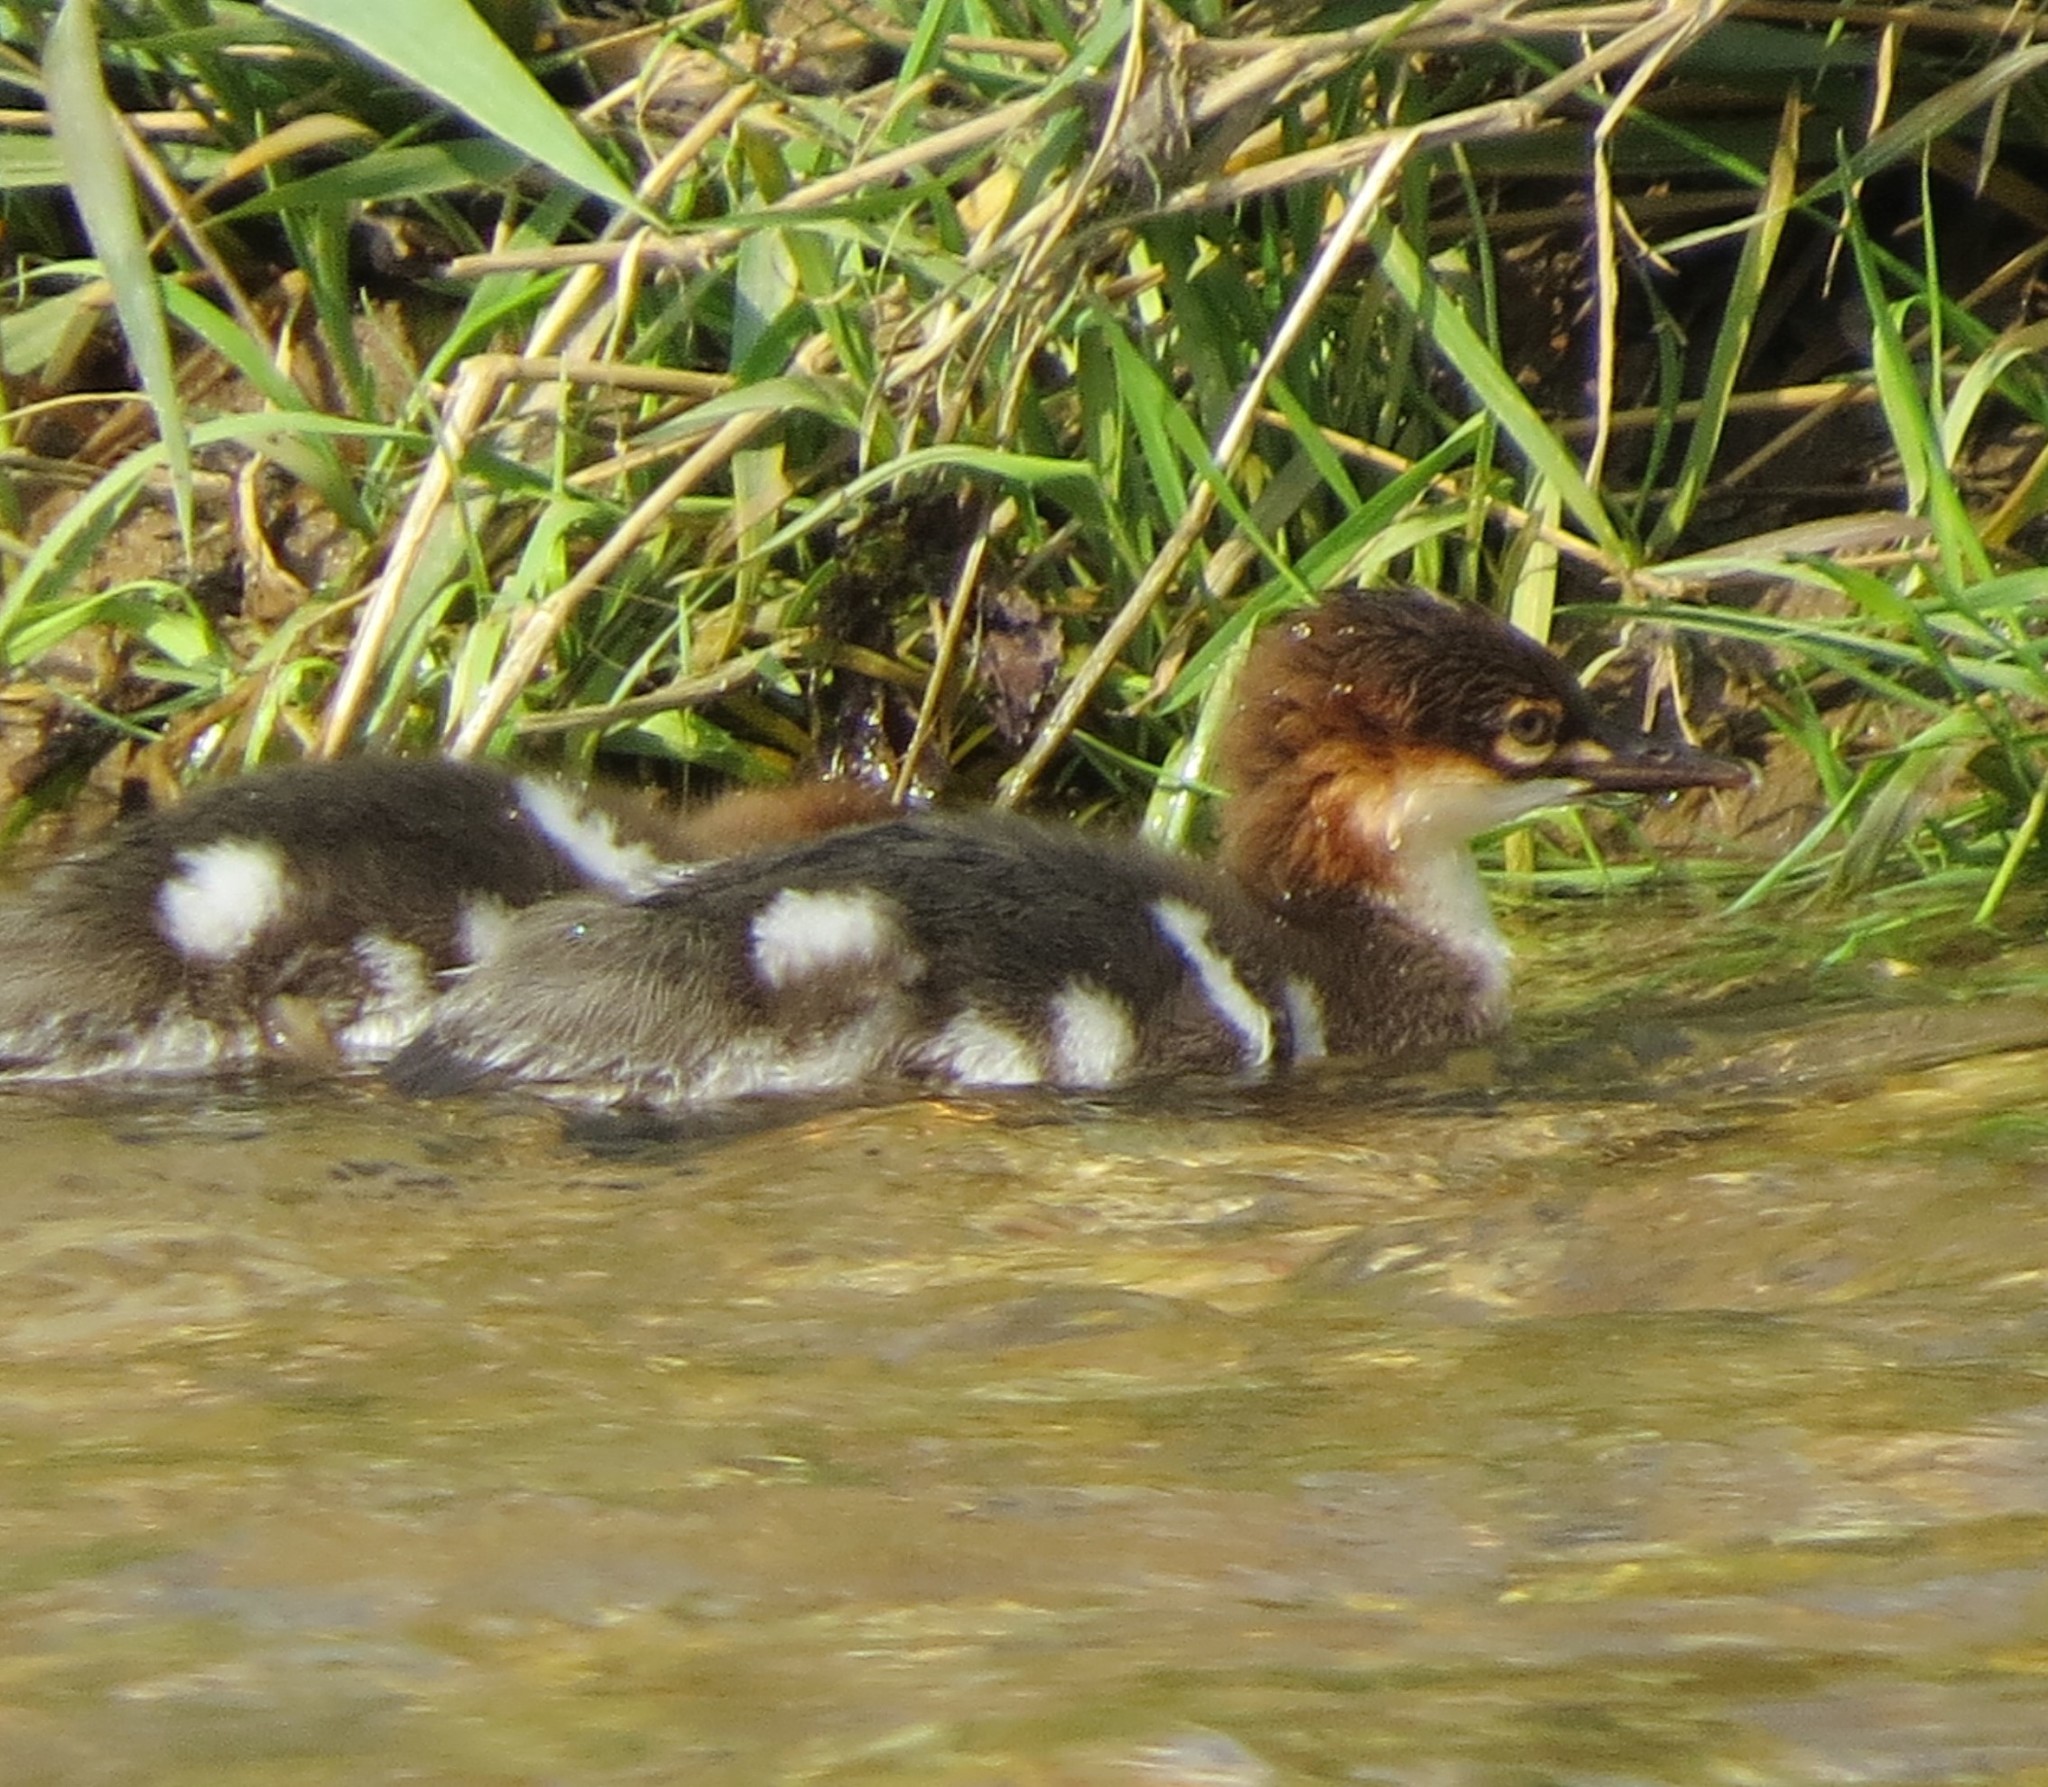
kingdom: Animalia
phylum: Chordata
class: Aves
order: Anseriformes
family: Anatidae
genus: Mergus
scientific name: Mergus merganser
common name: Common merganser
